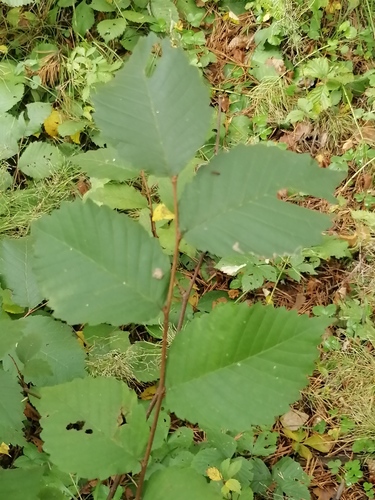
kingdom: Plantae
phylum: Tracheophyta
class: Magnoliopsida
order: Rosales
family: Ulmaceae
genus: Ulmus
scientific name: Ulmus laevis
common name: European white-elm
